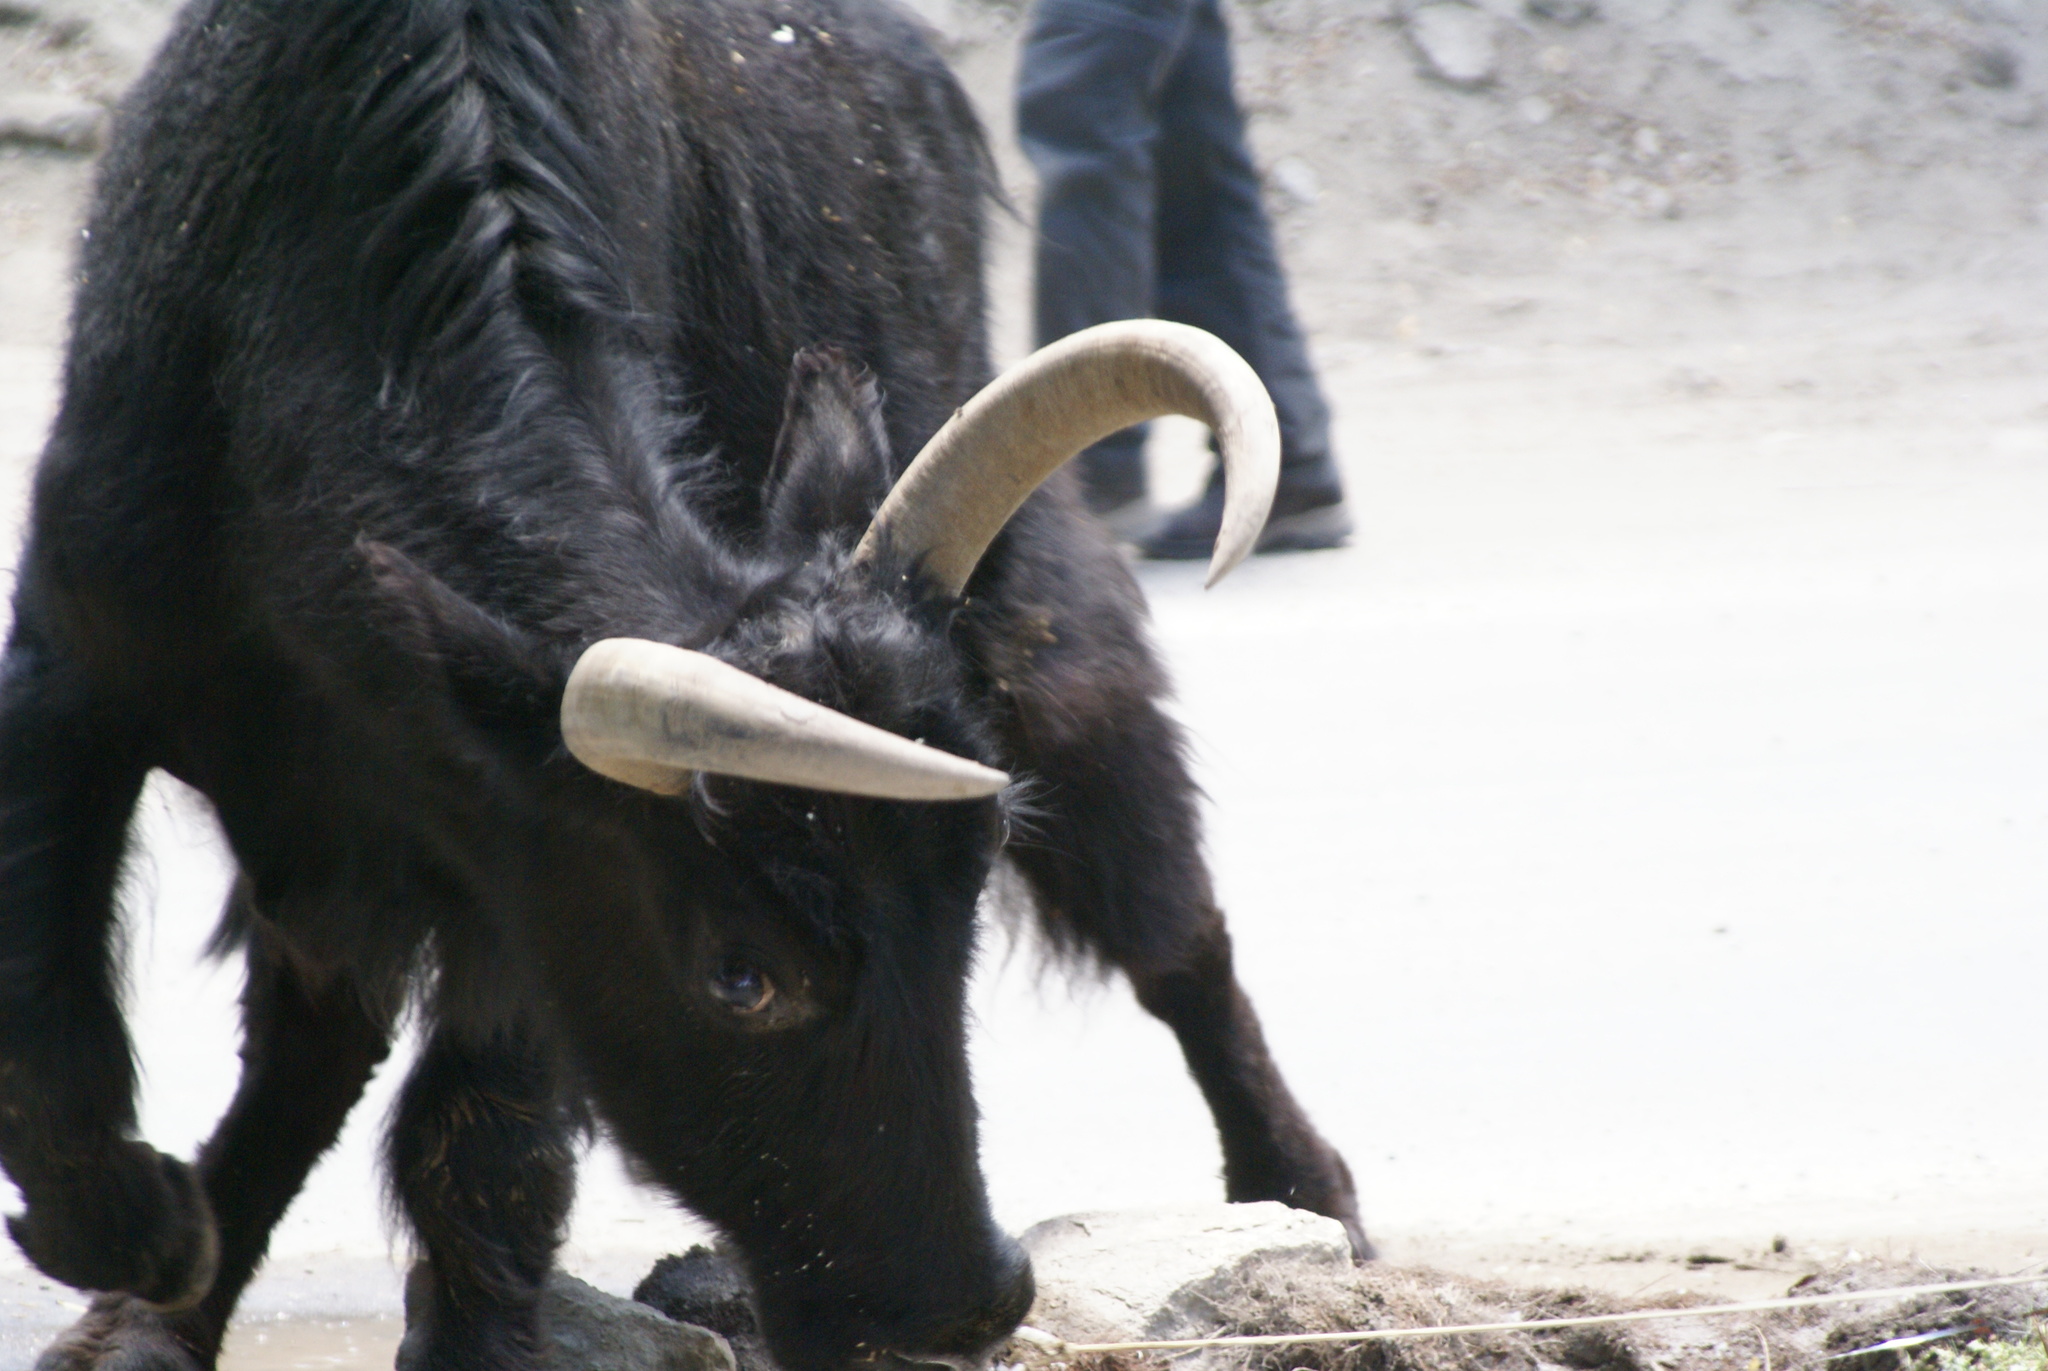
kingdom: Animalia
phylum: Chordata
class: Mammalia
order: Artiodactyla
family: Bovidae
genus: Bos
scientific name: Bos grunniens
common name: Yak
